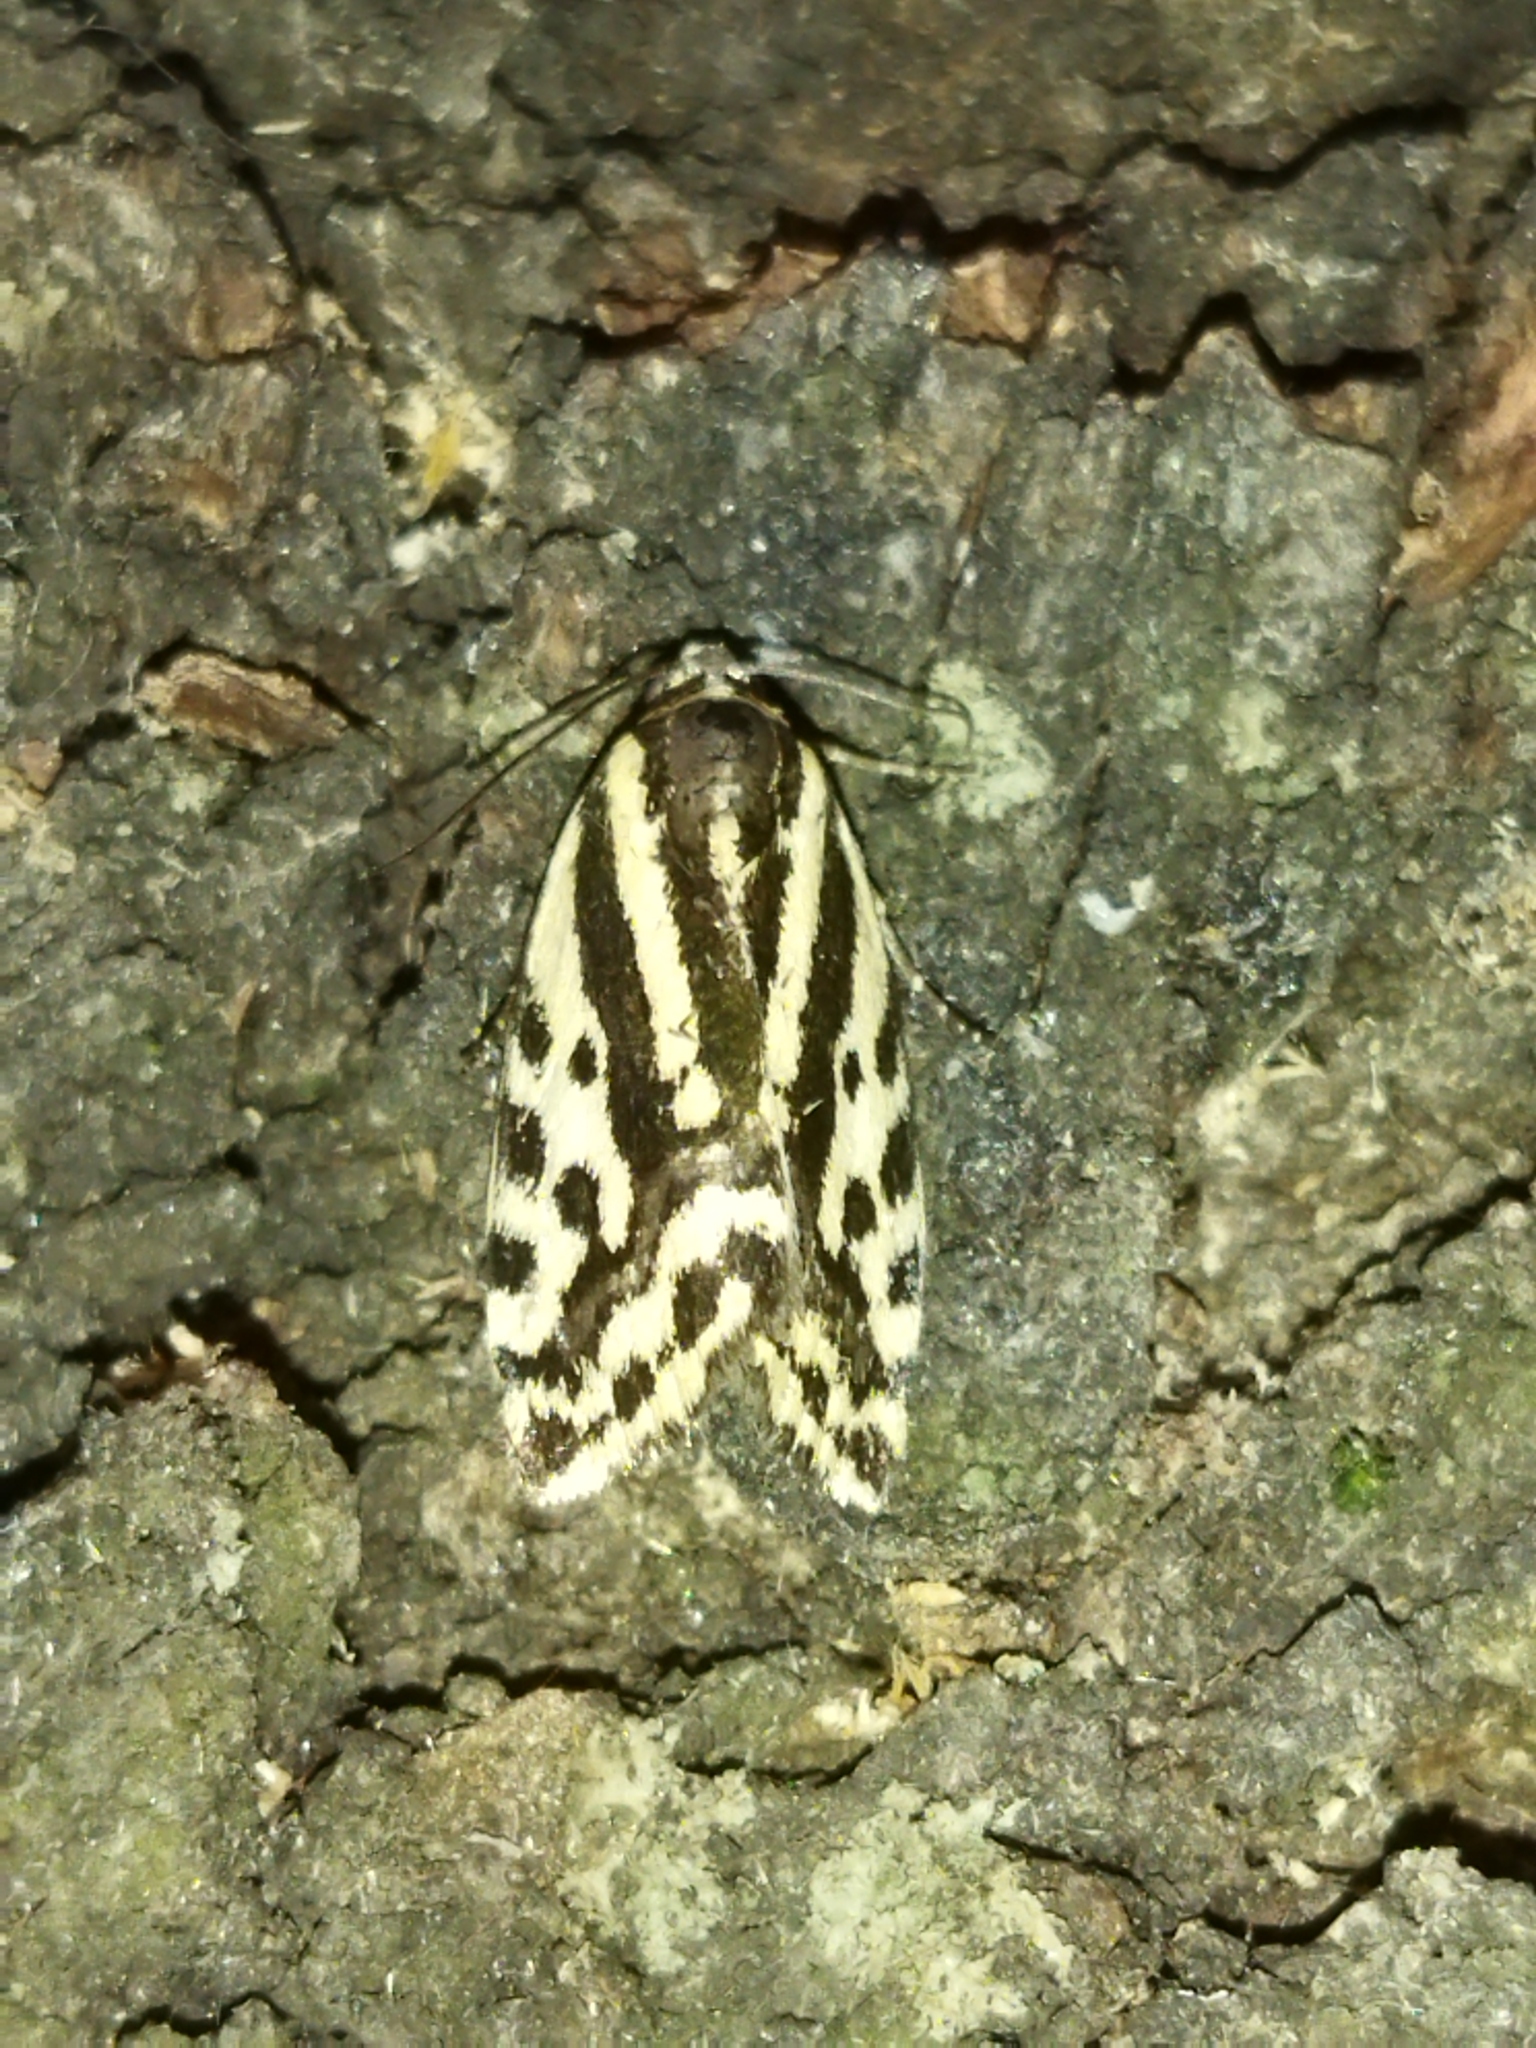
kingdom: Animalia
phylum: Arthropoda
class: Insecta
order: Lepidoptera
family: Noctuidae
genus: Acontia
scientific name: Acontia trabealis
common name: Spotted sulphur
